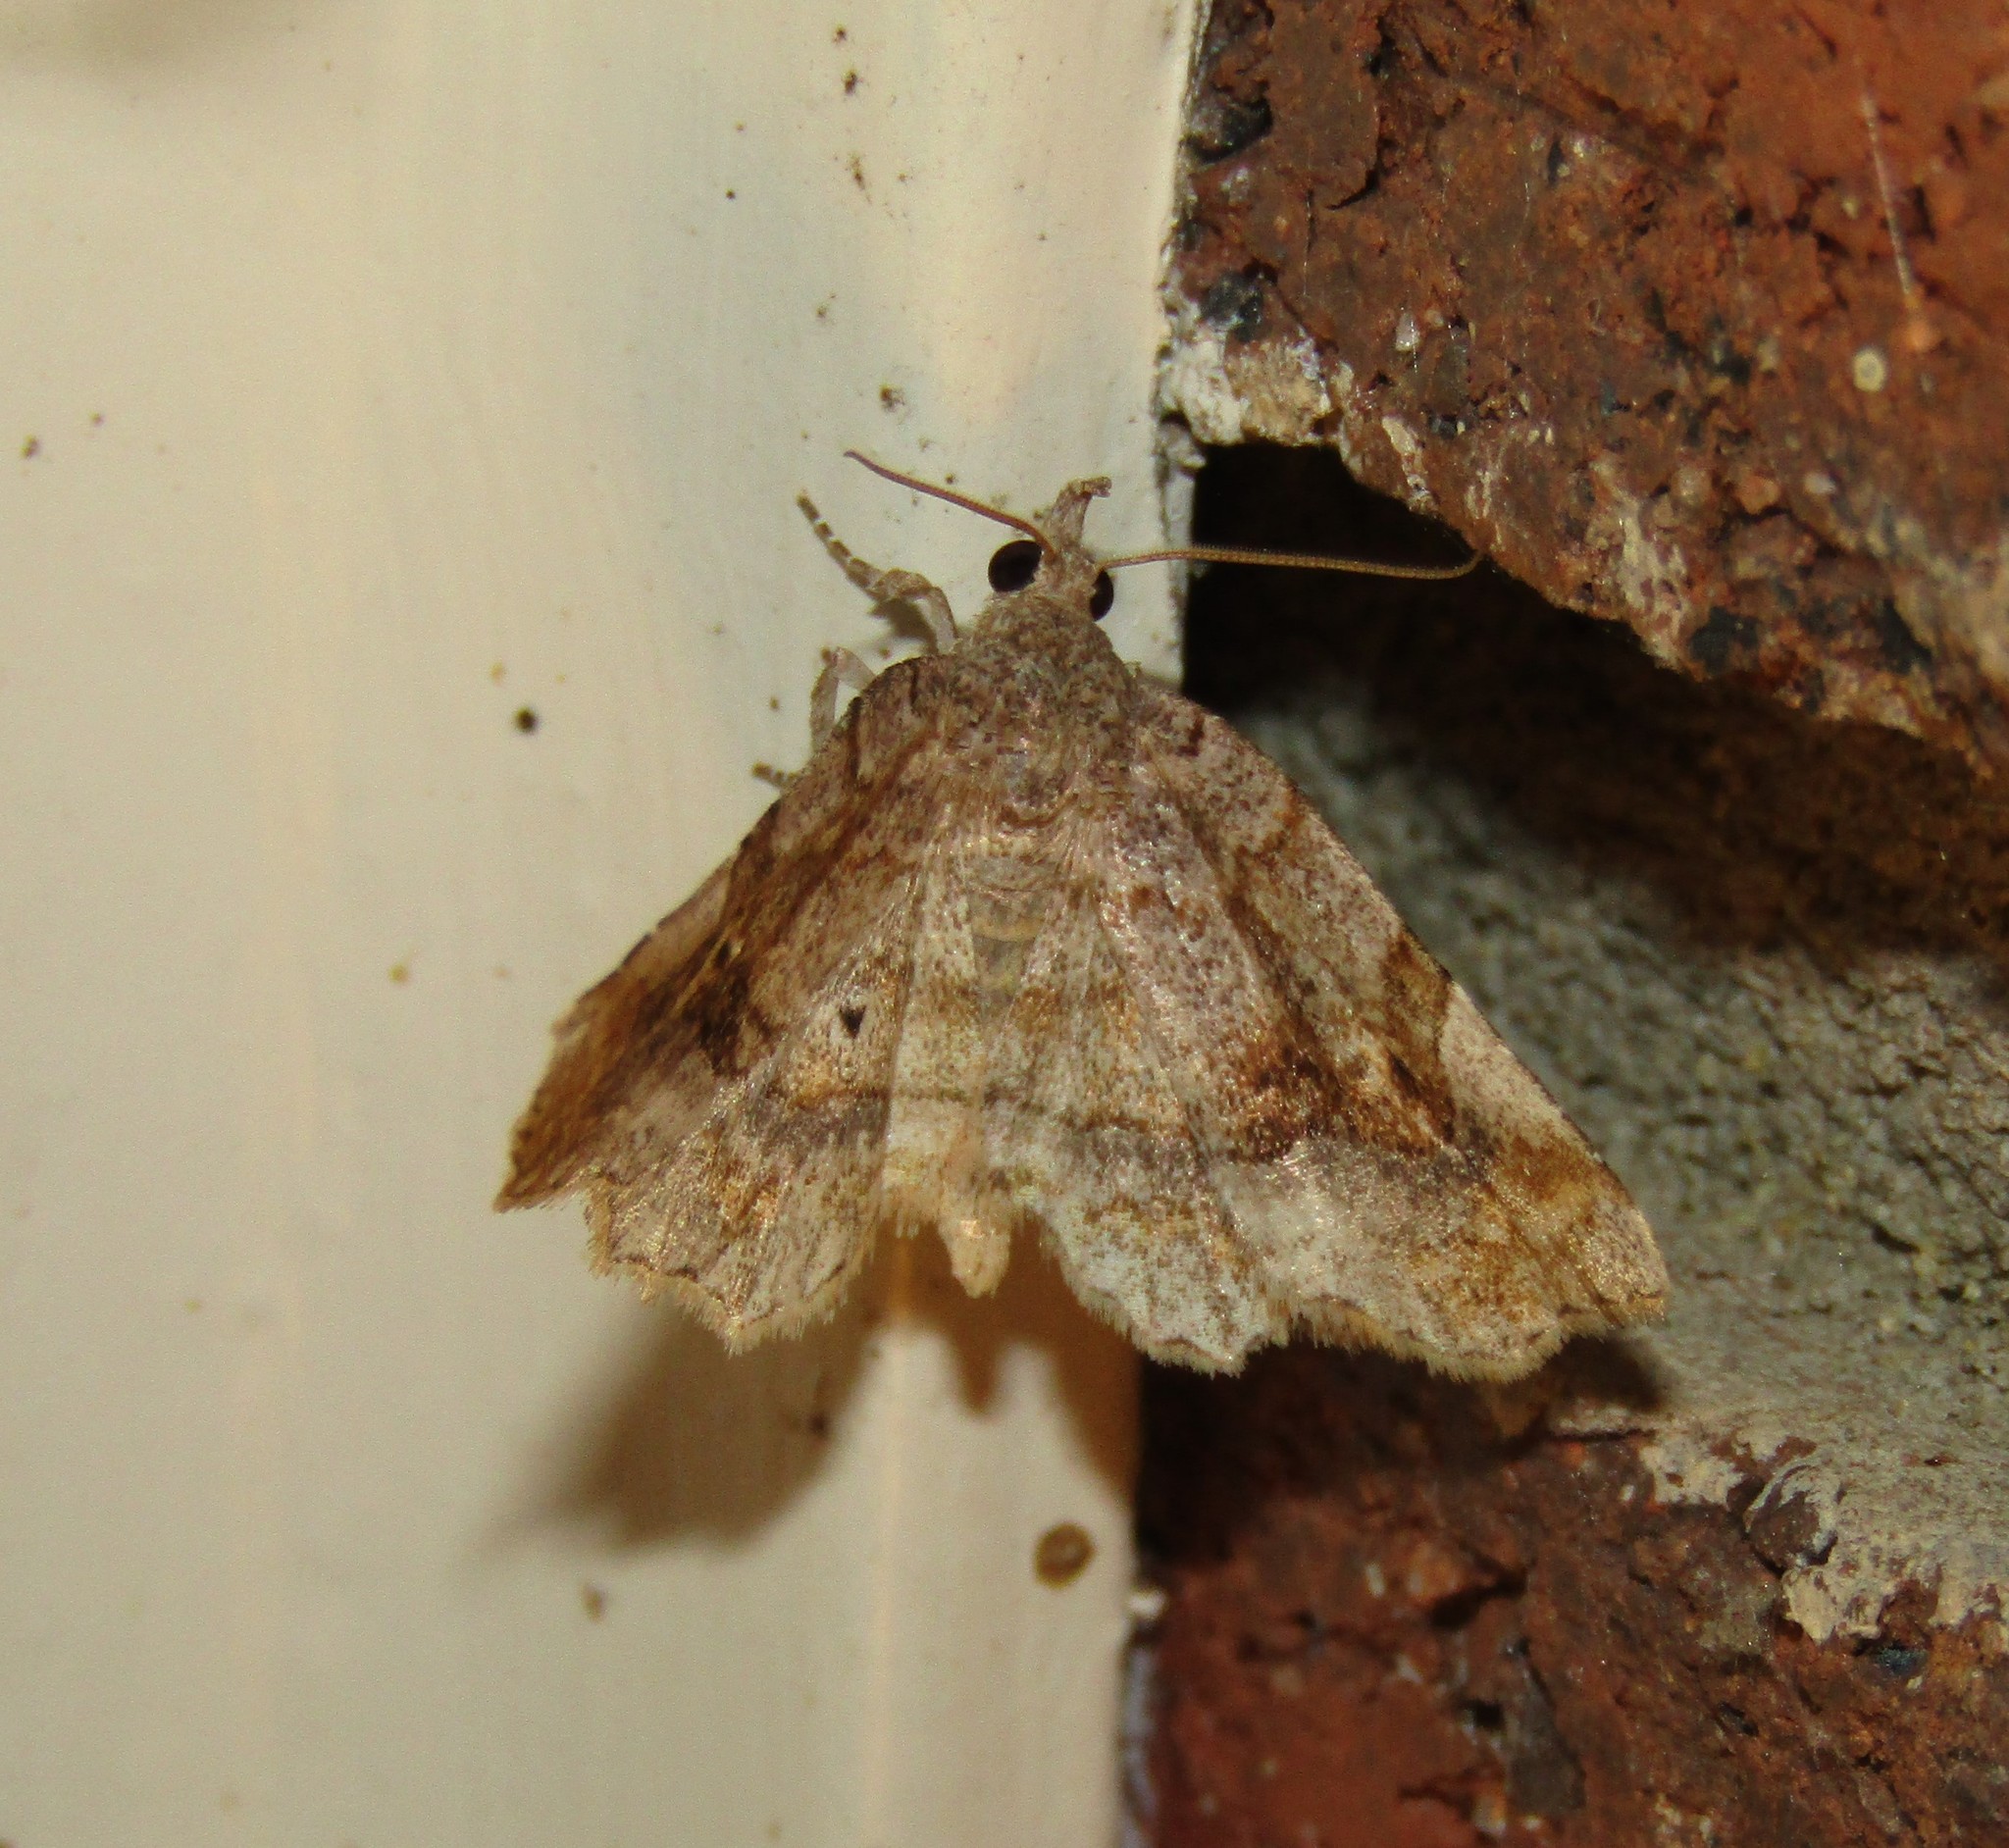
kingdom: Animalia
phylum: Arthropoda
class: Insecta
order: Lepidoptera
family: Erebidae
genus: Pangrapta
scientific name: Pangrapta decoralis
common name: Decorated owlet
